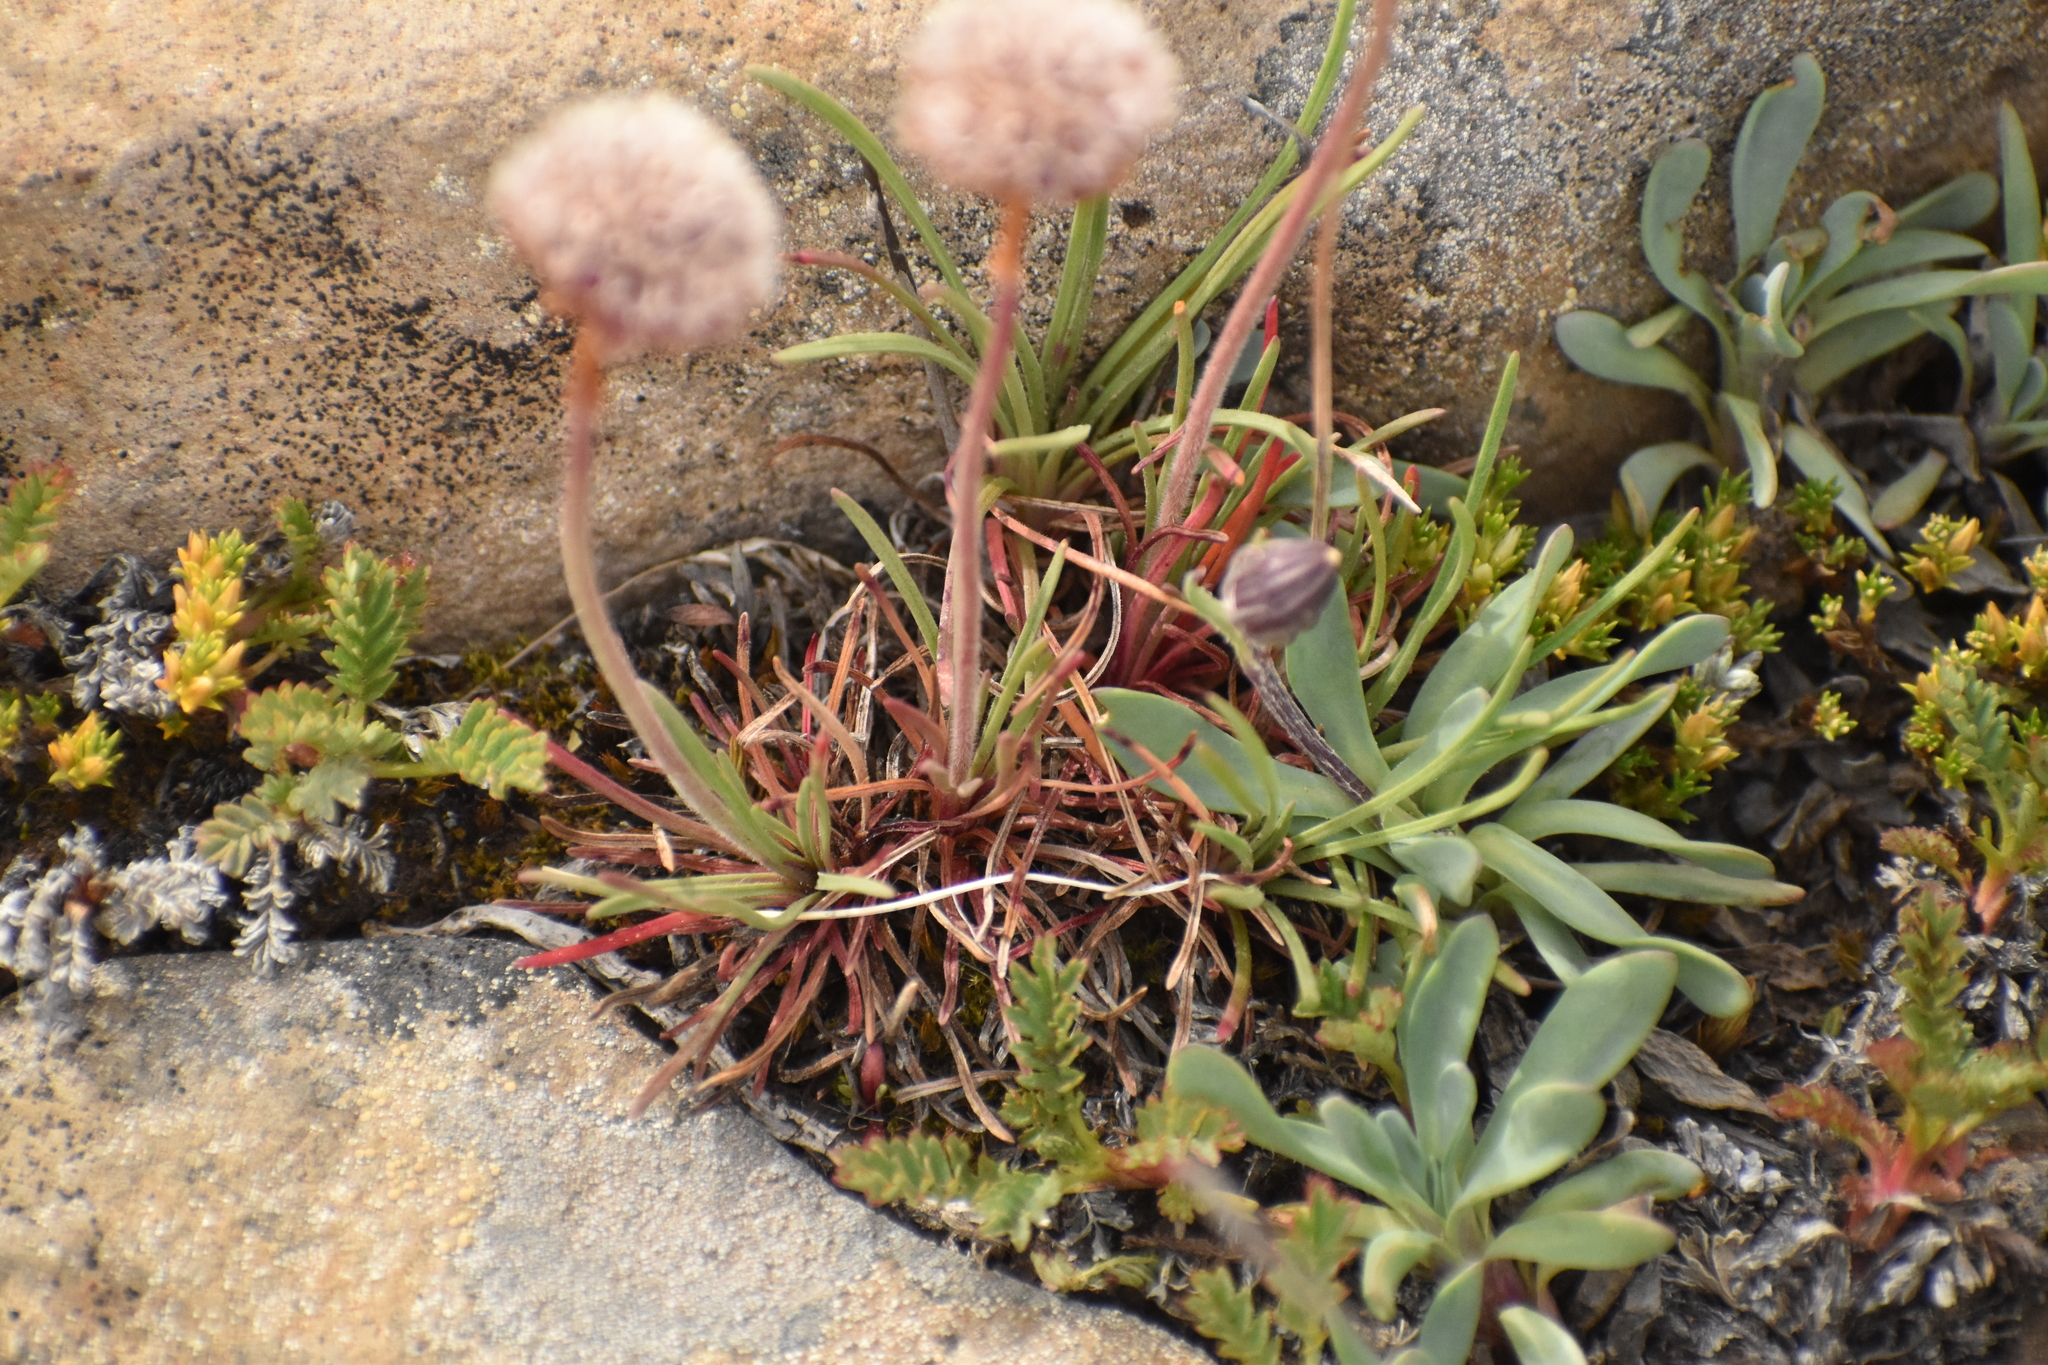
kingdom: Plantae
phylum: Tracheophyta
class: Magnoliopsida
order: Caryophyllales
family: Plumbaginaceae
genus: Armeria
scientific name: Armeria curvifolia
